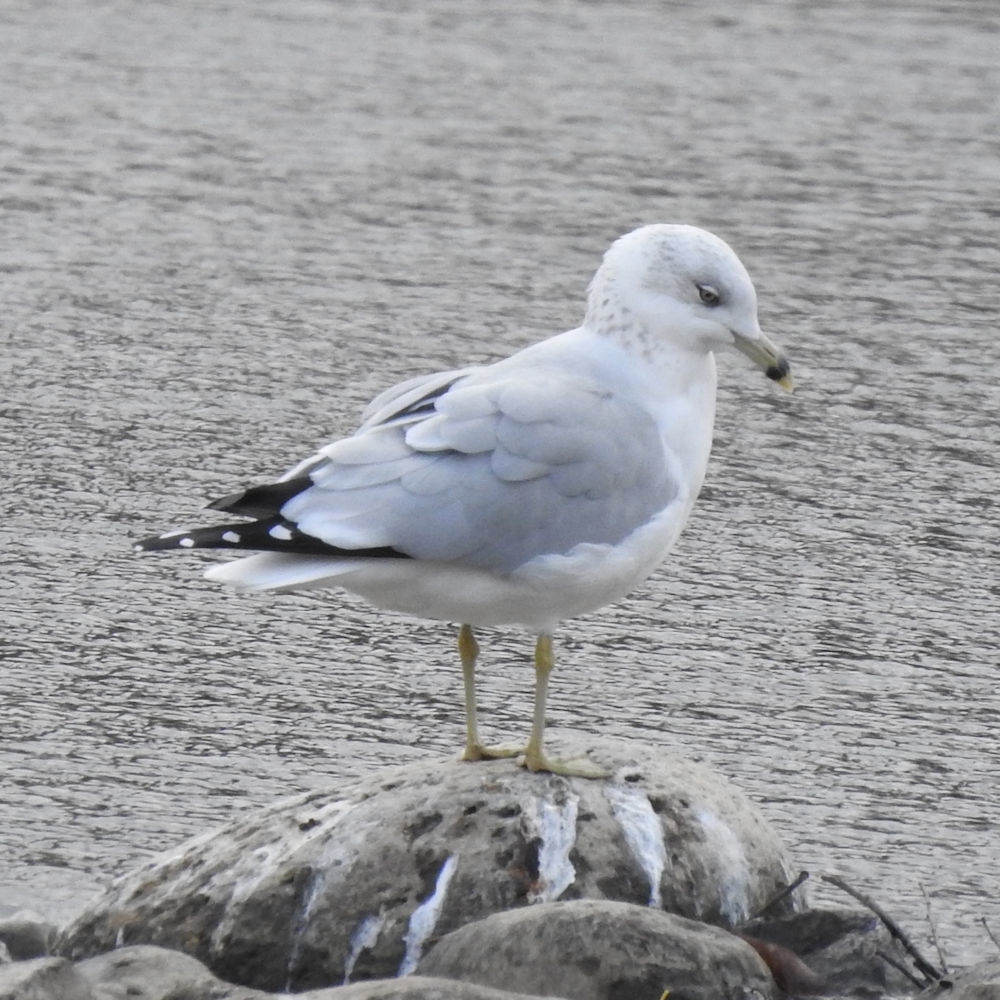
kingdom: Animalia
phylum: Chordata
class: Aves
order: Charadriiformes
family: Laridae
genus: Larus
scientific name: Larus delawarensis
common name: Ring-billed gull
